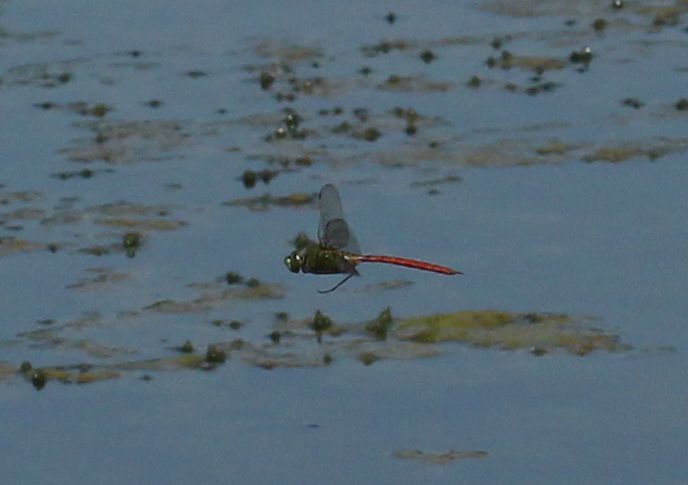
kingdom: Animalia
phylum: Arthropoda
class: Insecta
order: Odonata
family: Aeshnidae
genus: Anax
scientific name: Anax longipes
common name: Comet darner
